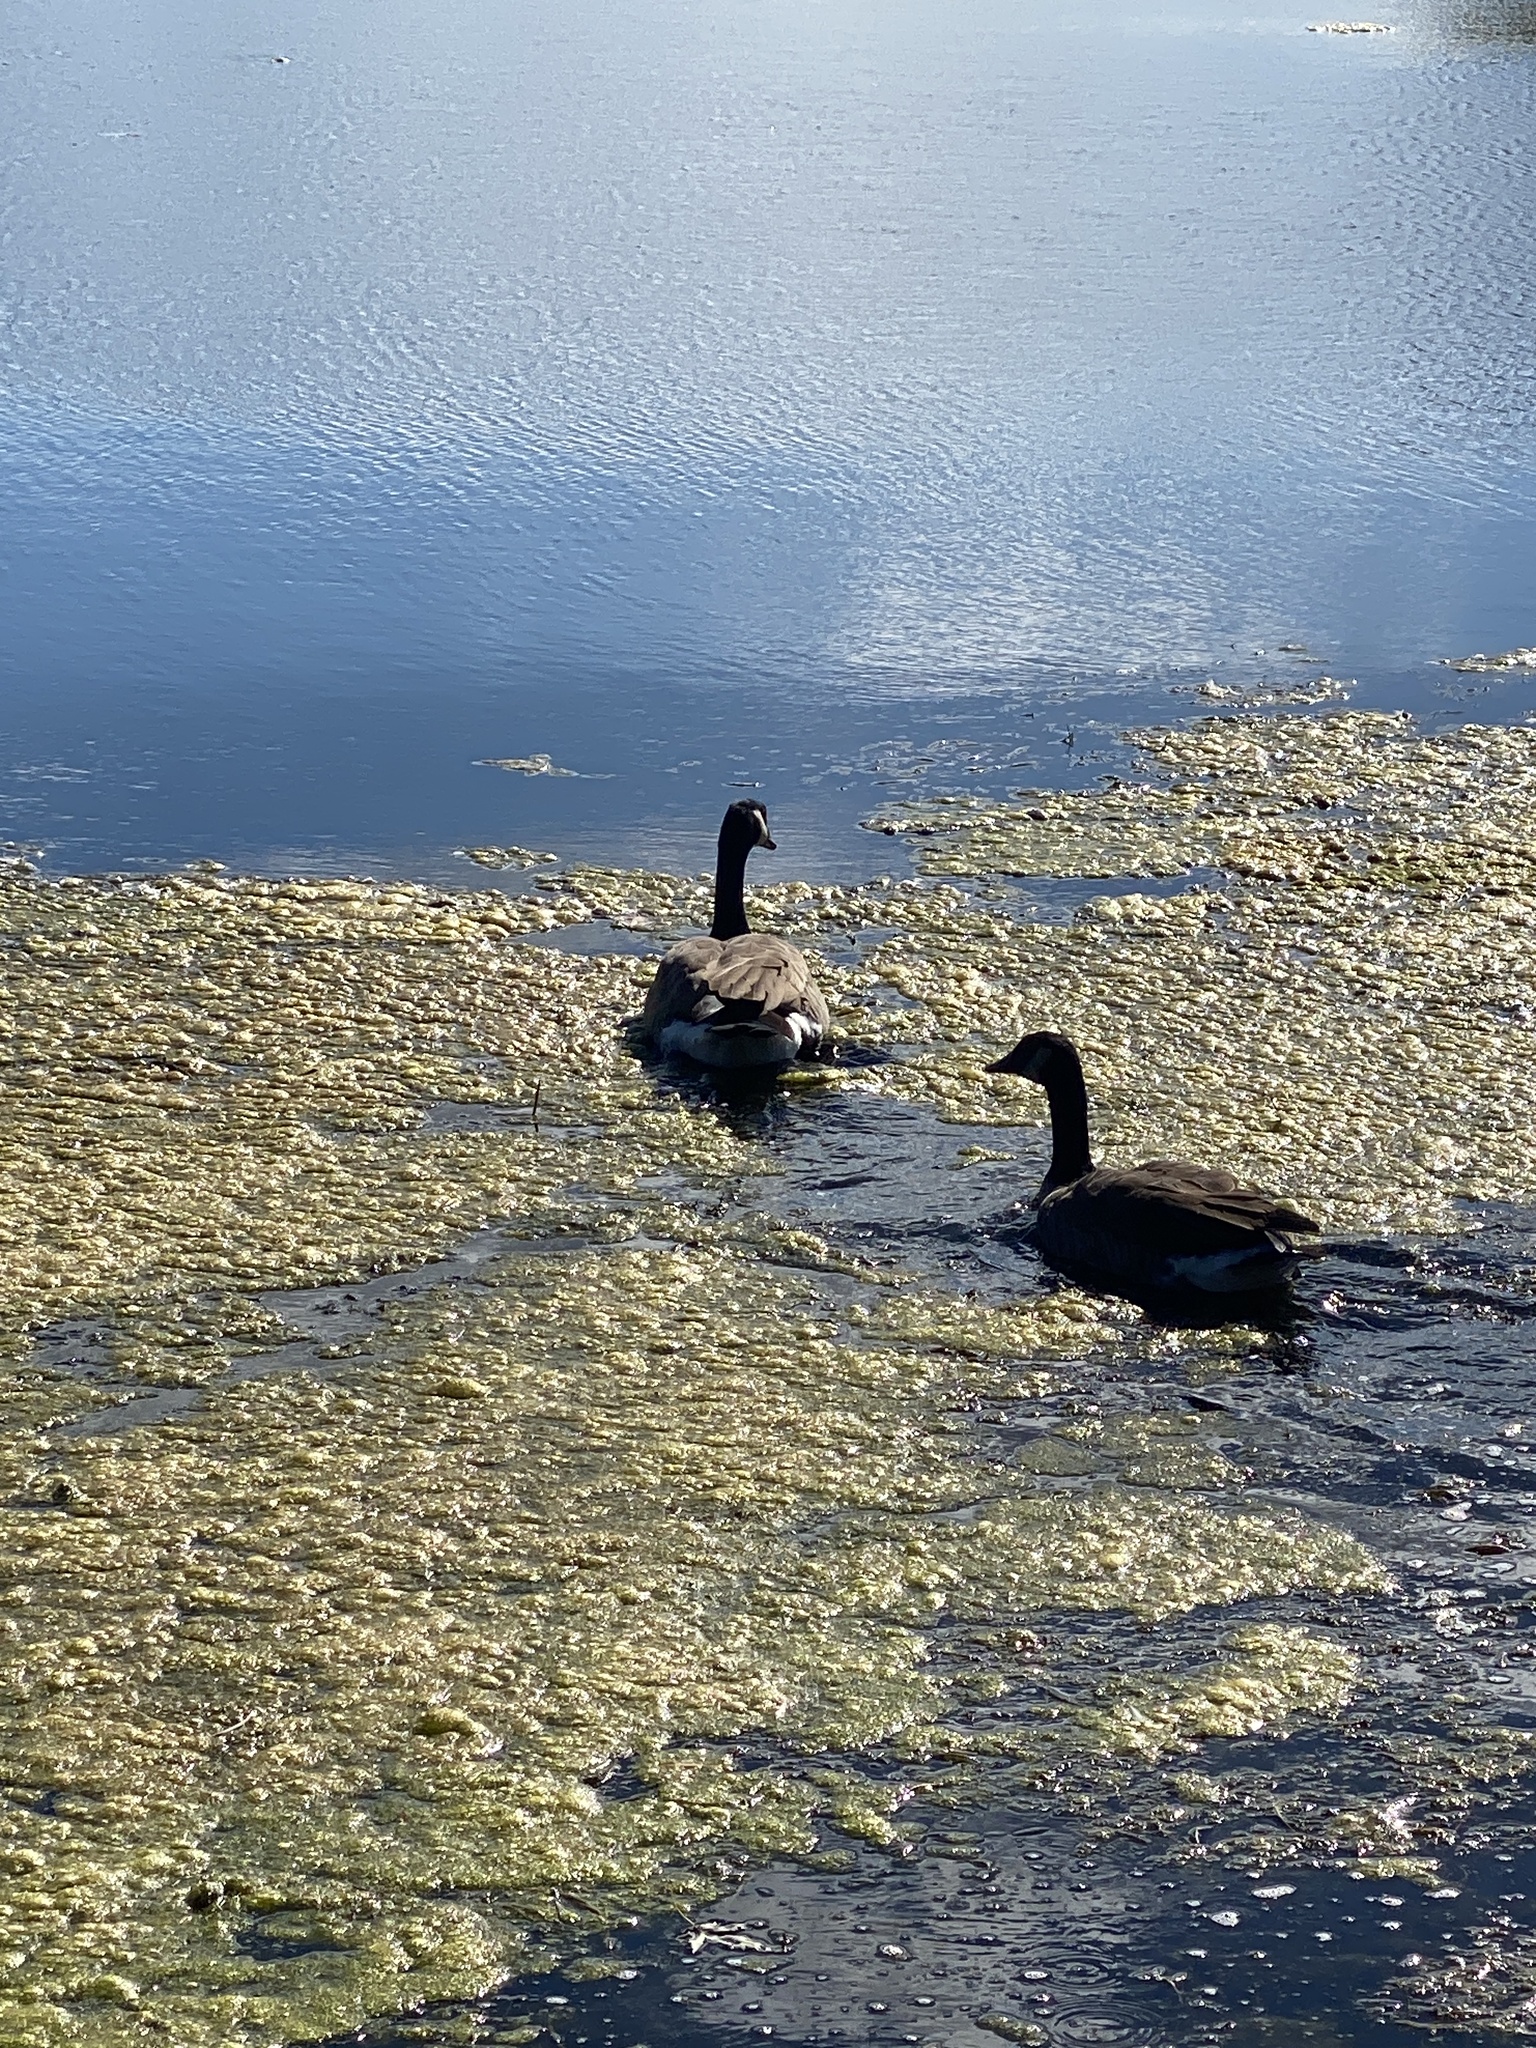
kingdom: Animalia
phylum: Chordata
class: Aves
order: Anseriformes
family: Anatidae
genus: Branta
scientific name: Branta canadensis
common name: Canada goose
